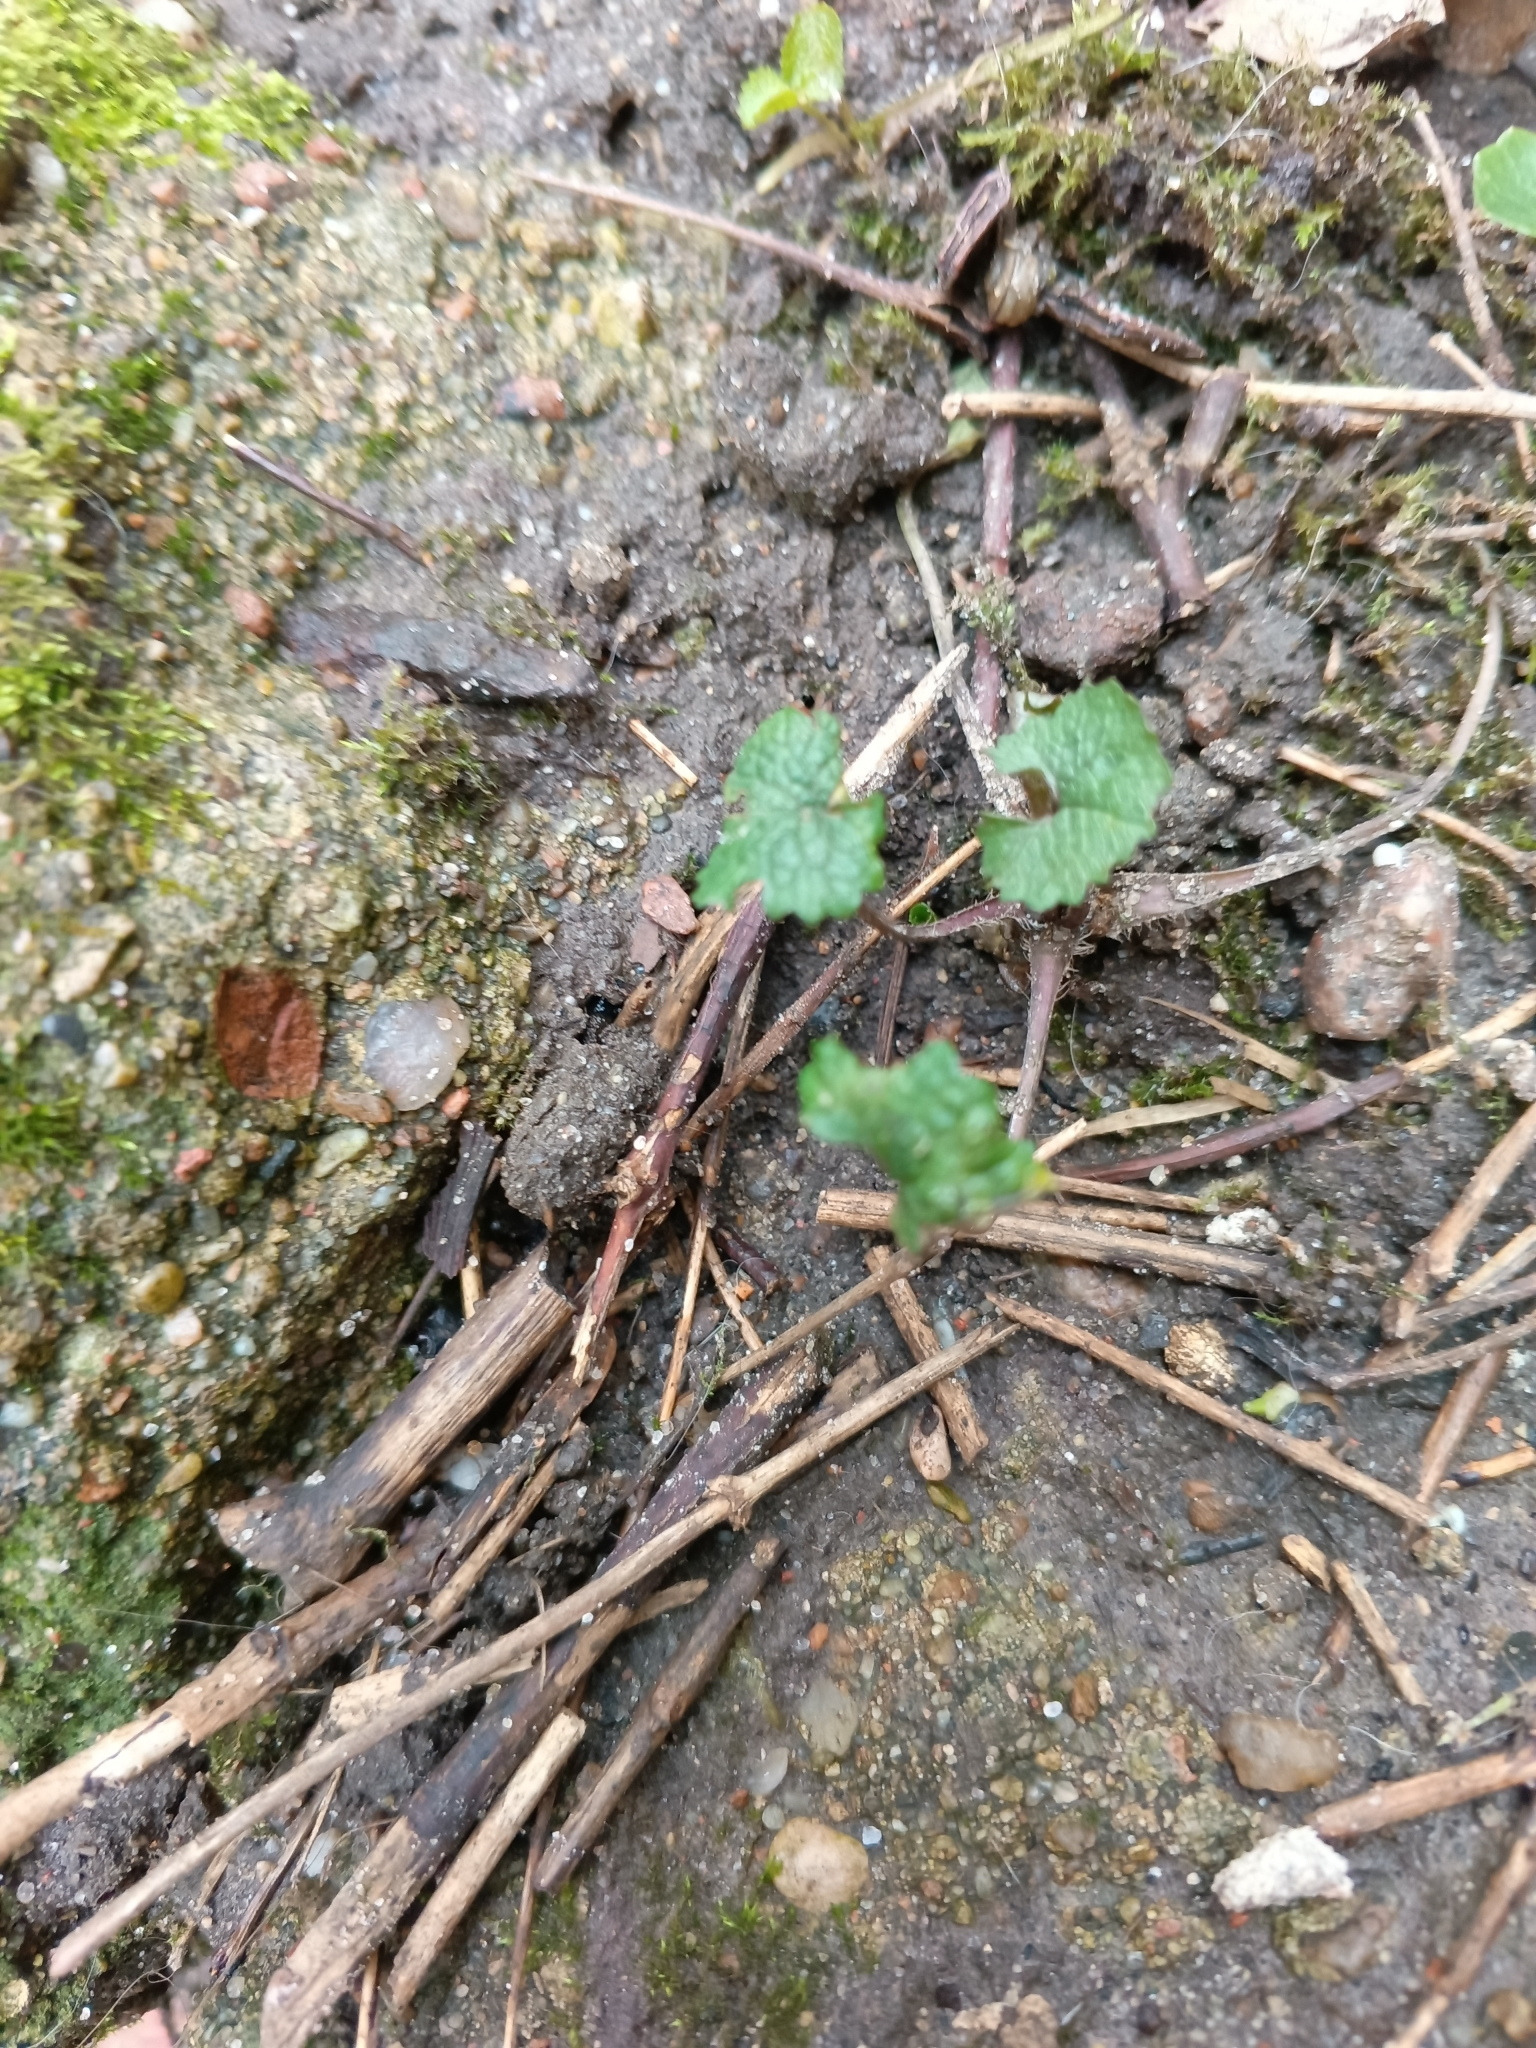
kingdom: Plantae
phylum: Tracheophyta
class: Magnoliopsida
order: Brassicales
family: Brassicaceae
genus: Alliaria
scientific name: Alliaria petiolata
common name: Garlic mustard
